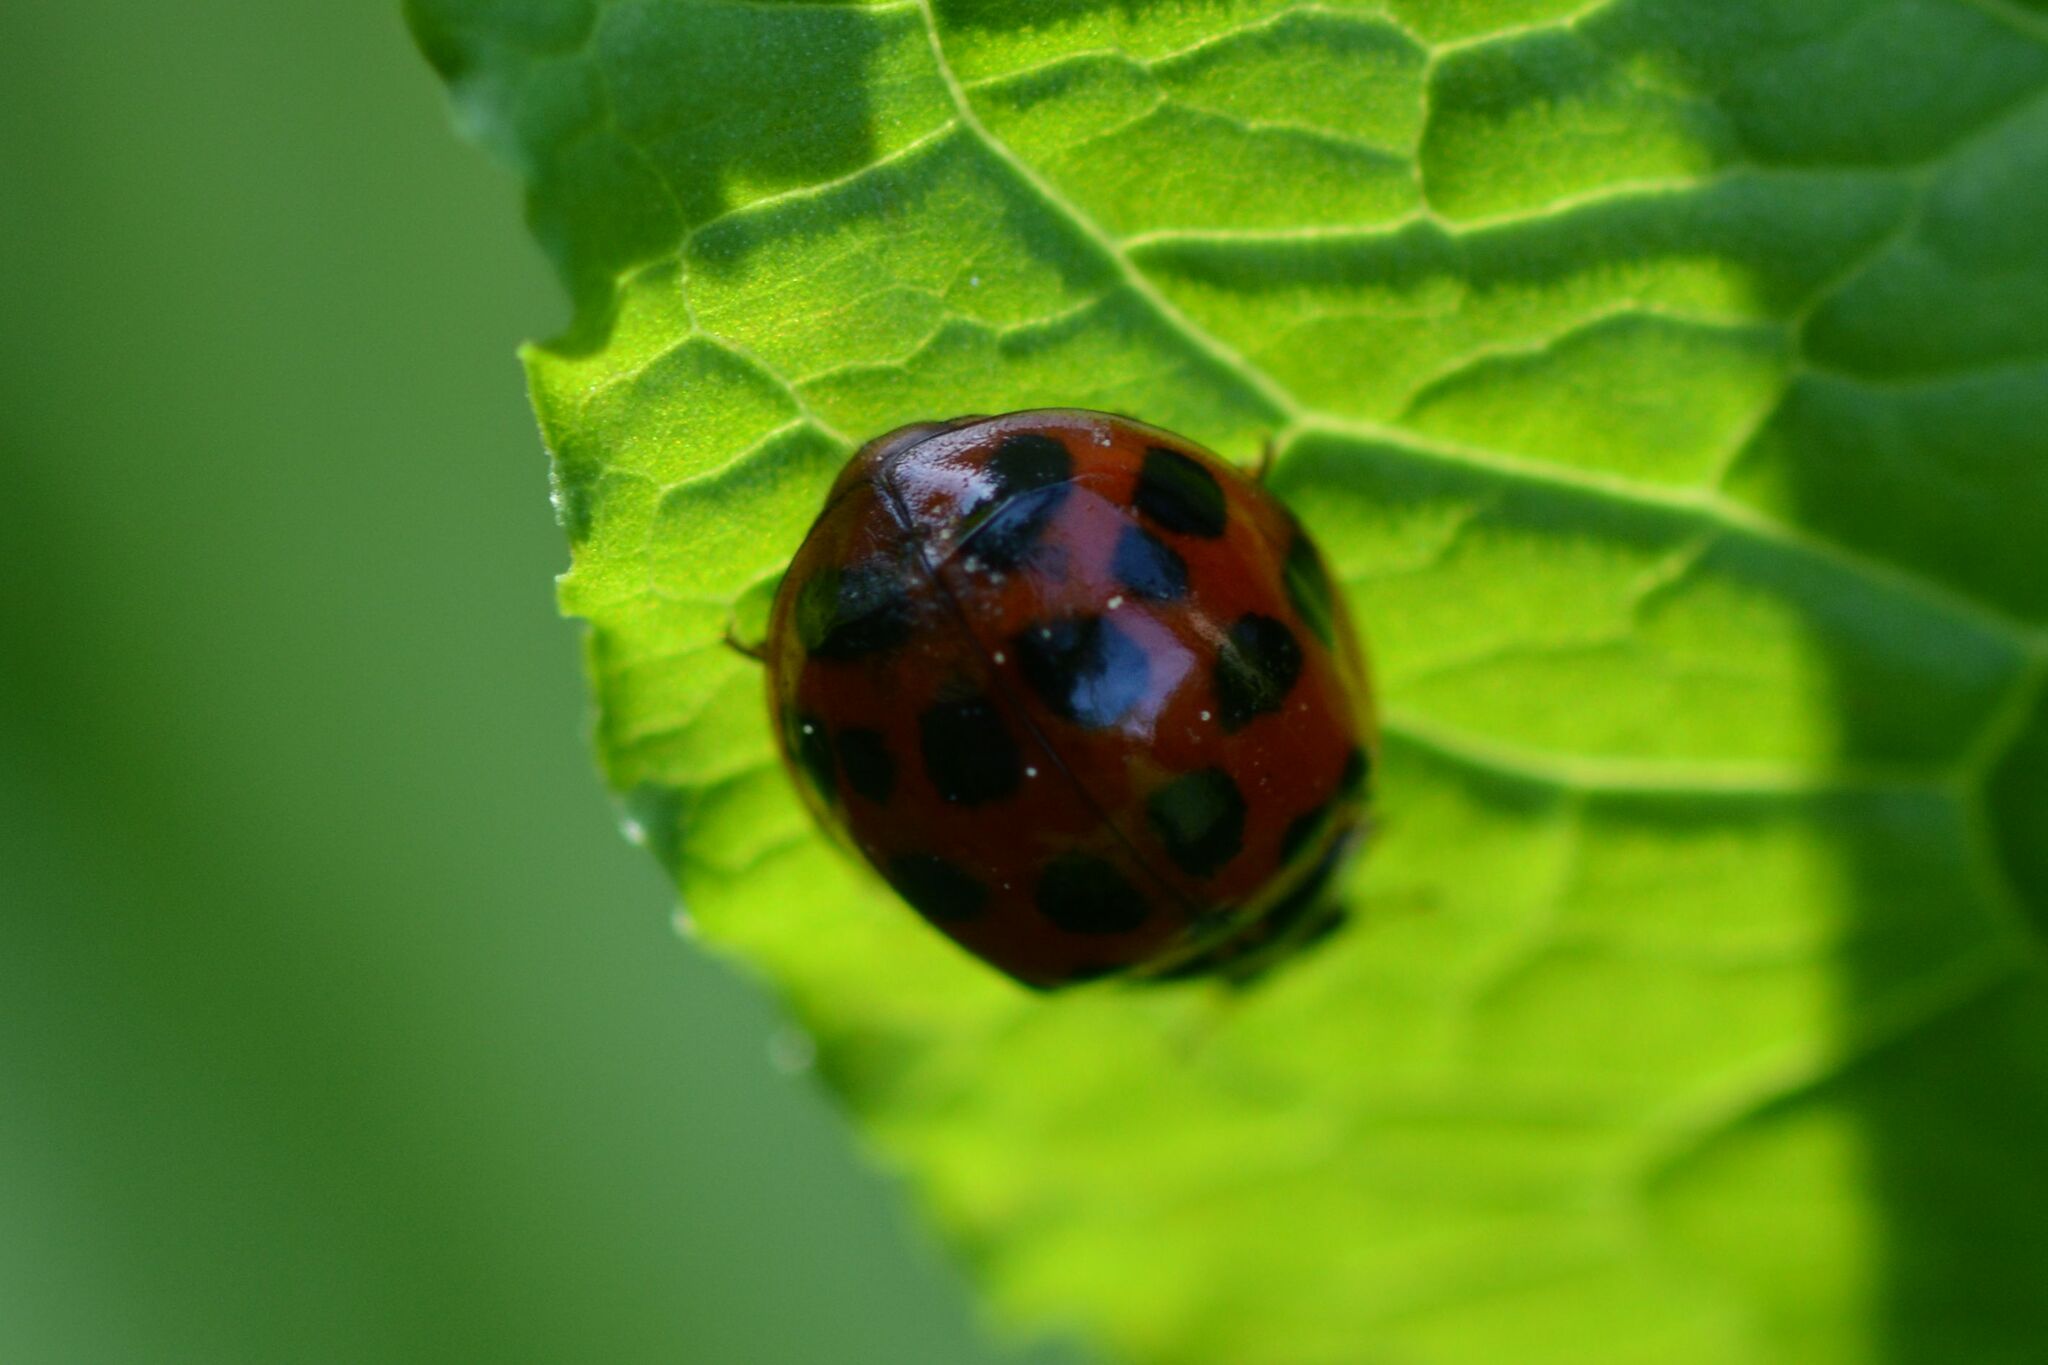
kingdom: Animalia
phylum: Arthropoda
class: Insecta
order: Coleoptera
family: Coccinellidae
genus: Harmonia
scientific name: Harmonia axyridis
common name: Harlequin ladybird
